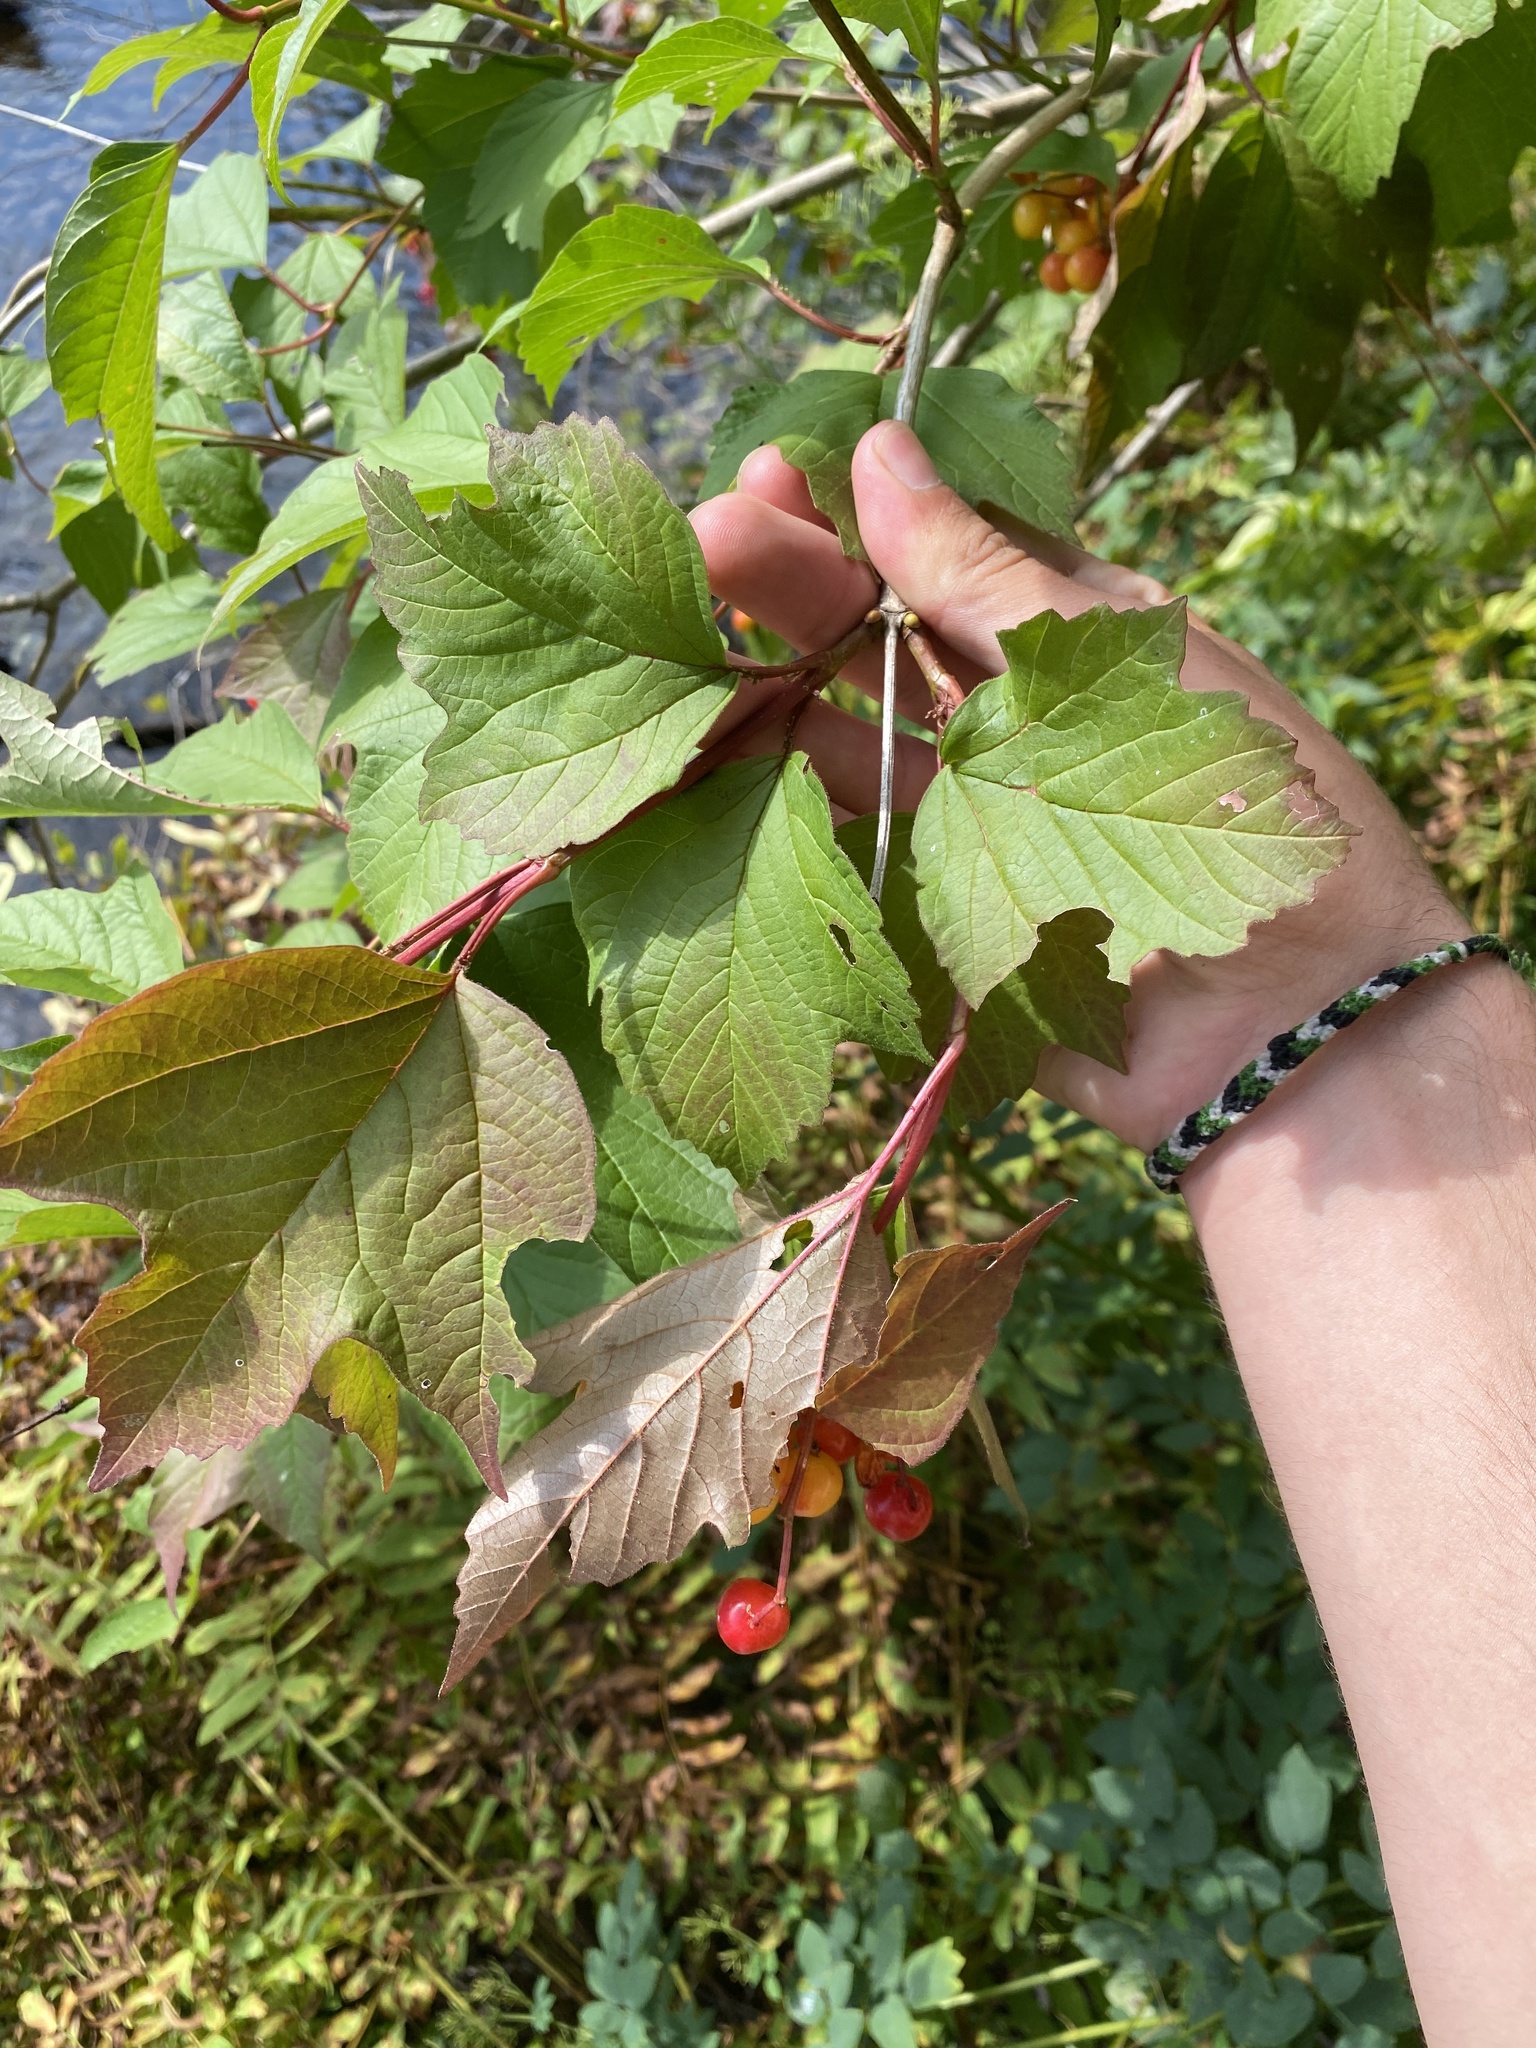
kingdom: Plantae
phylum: Tracheophyta
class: Magnoliopsida
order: Dipsacales
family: Viburnaceae
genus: Viburnum
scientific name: Viburnum opulus
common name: Guelder-rose
